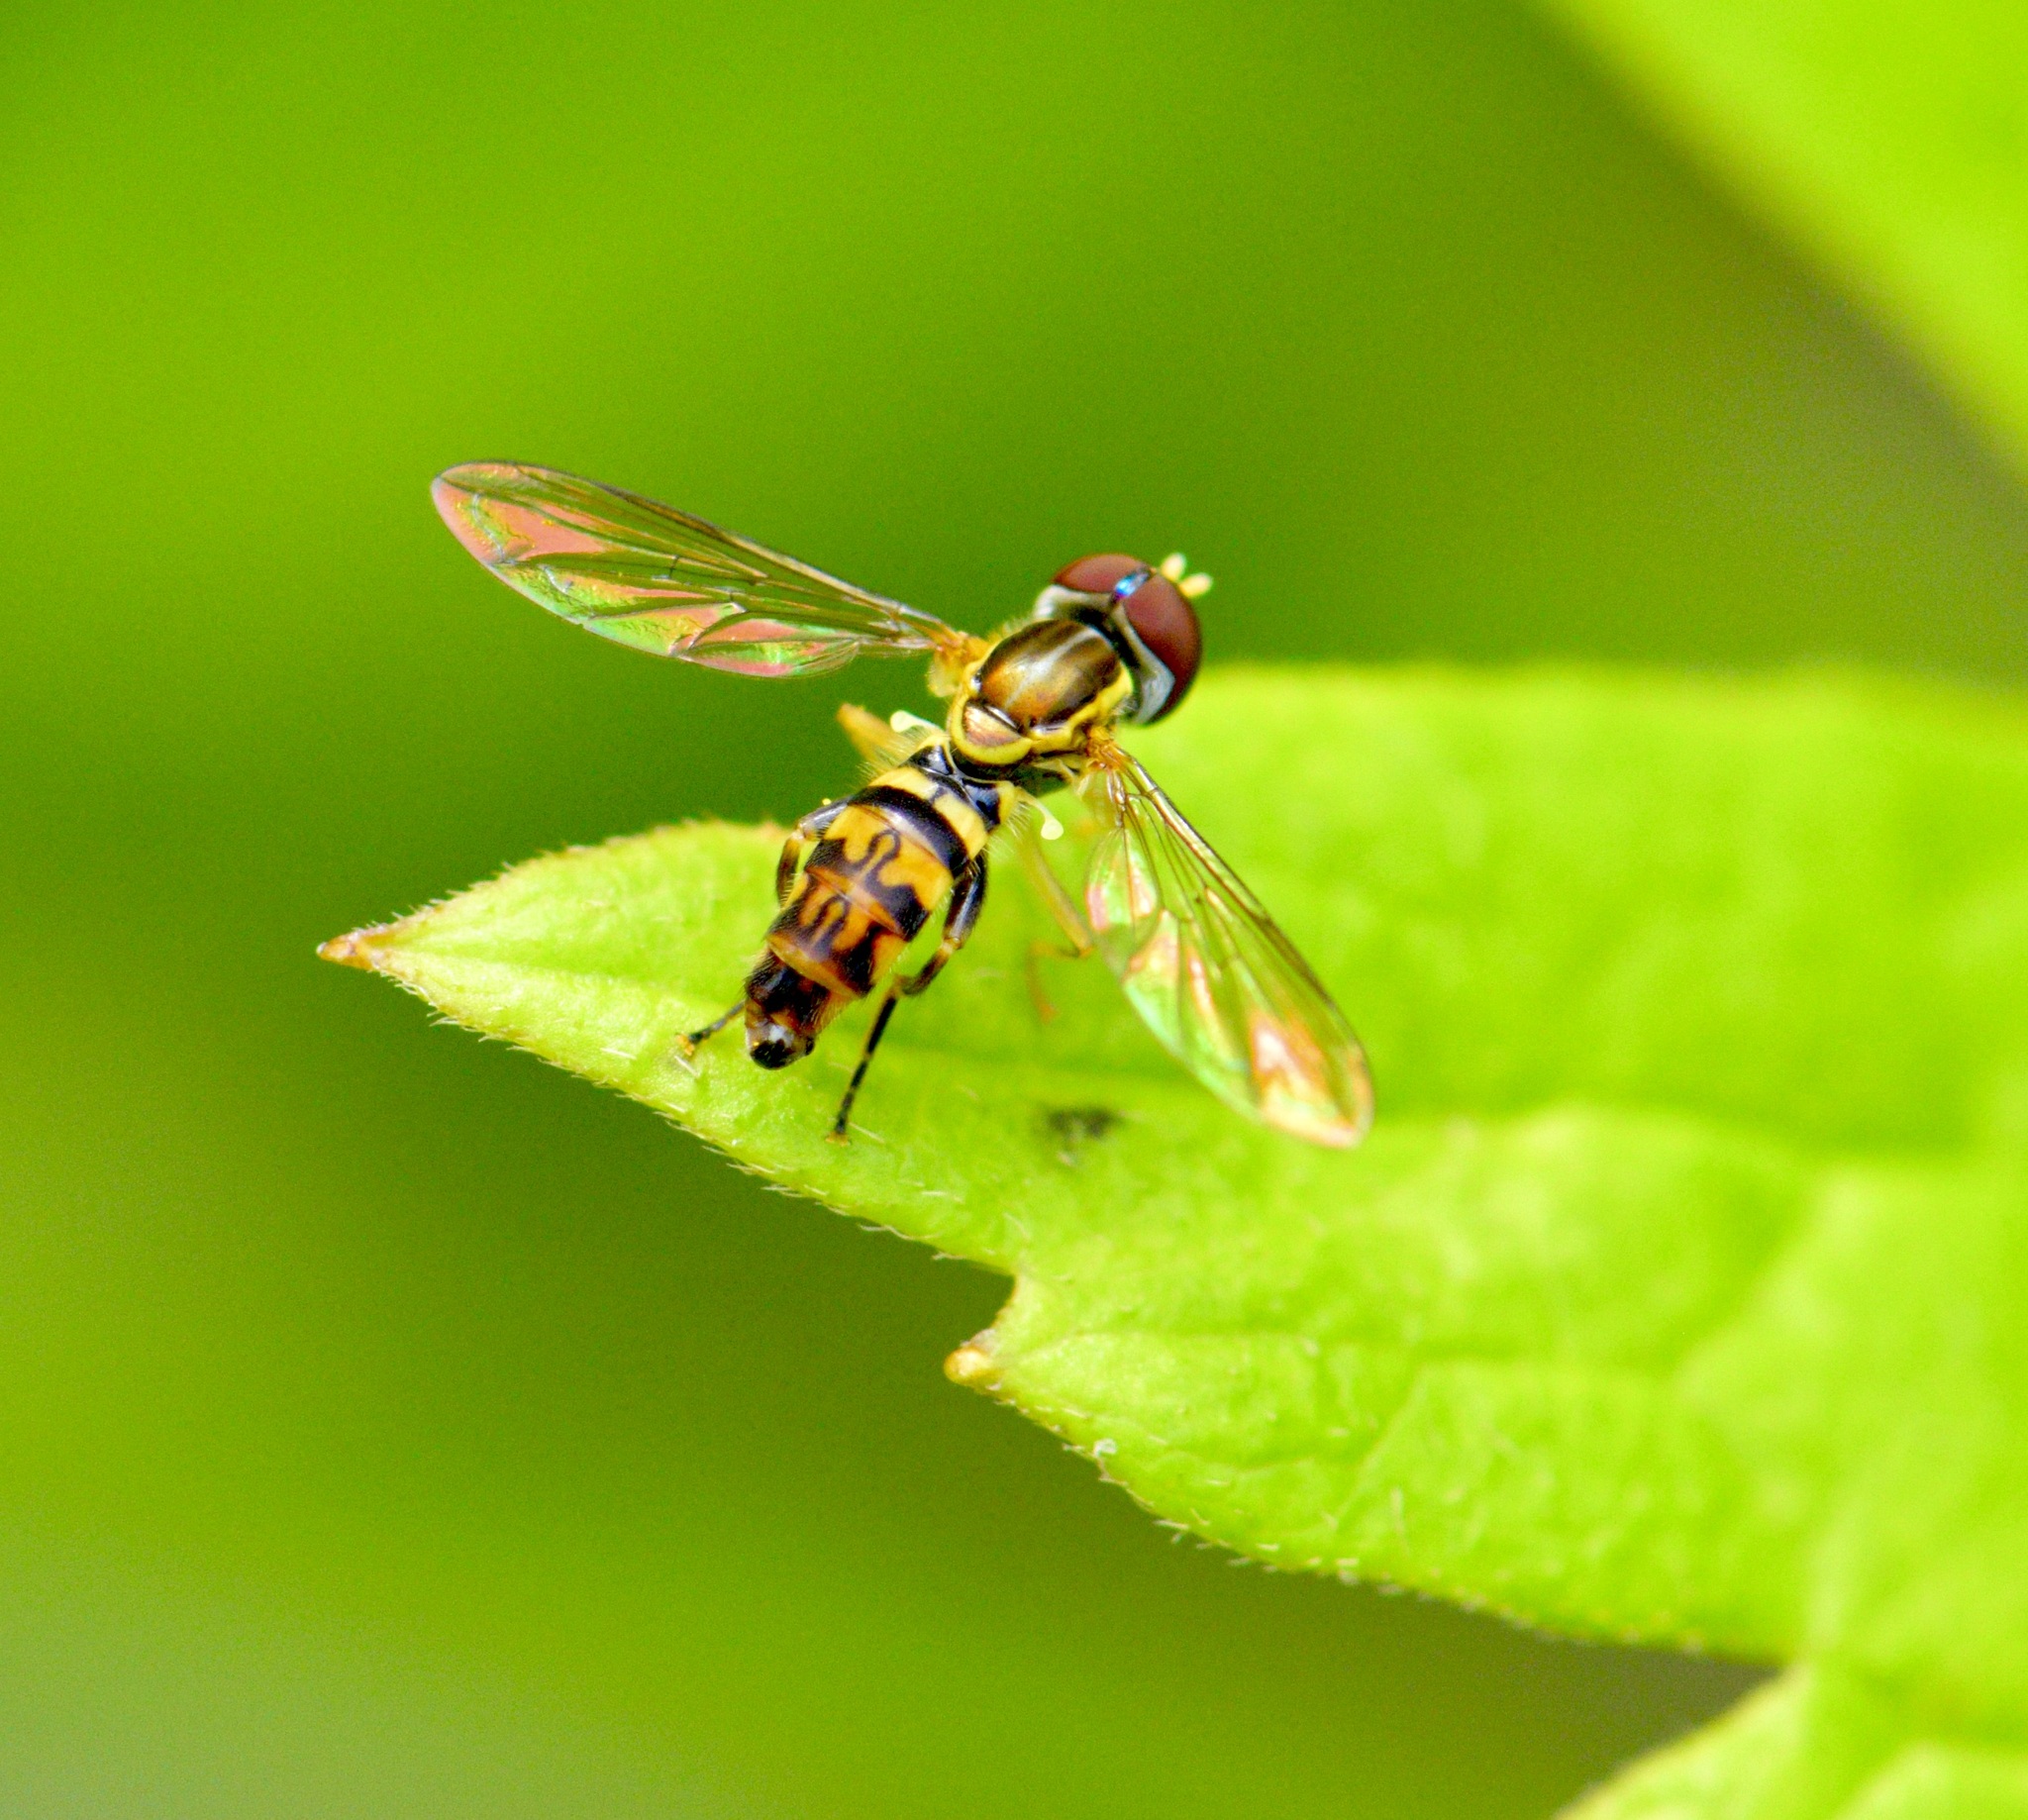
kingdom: Animalia
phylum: Arthropoda
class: Insecta
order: Diptera
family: Syrphidae
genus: Toxomerus
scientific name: Toxomerus geminatus
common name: Eastern calligrapher
